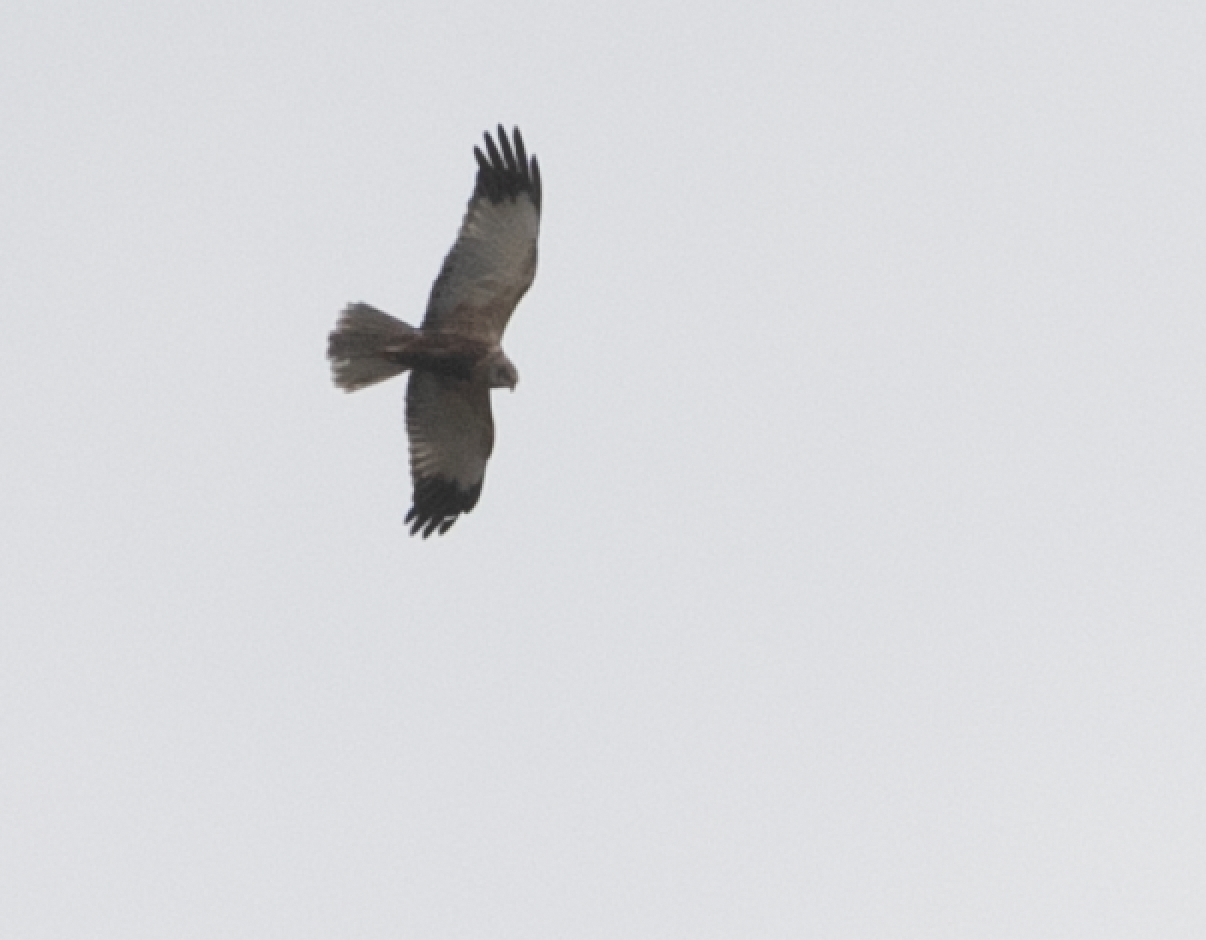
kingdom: Animalia
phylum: Chordata
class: Aves
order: Accipitriformes
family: Accipitridae
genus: Circus
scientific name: Circus aeruginosus
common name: Western marsh harrier
